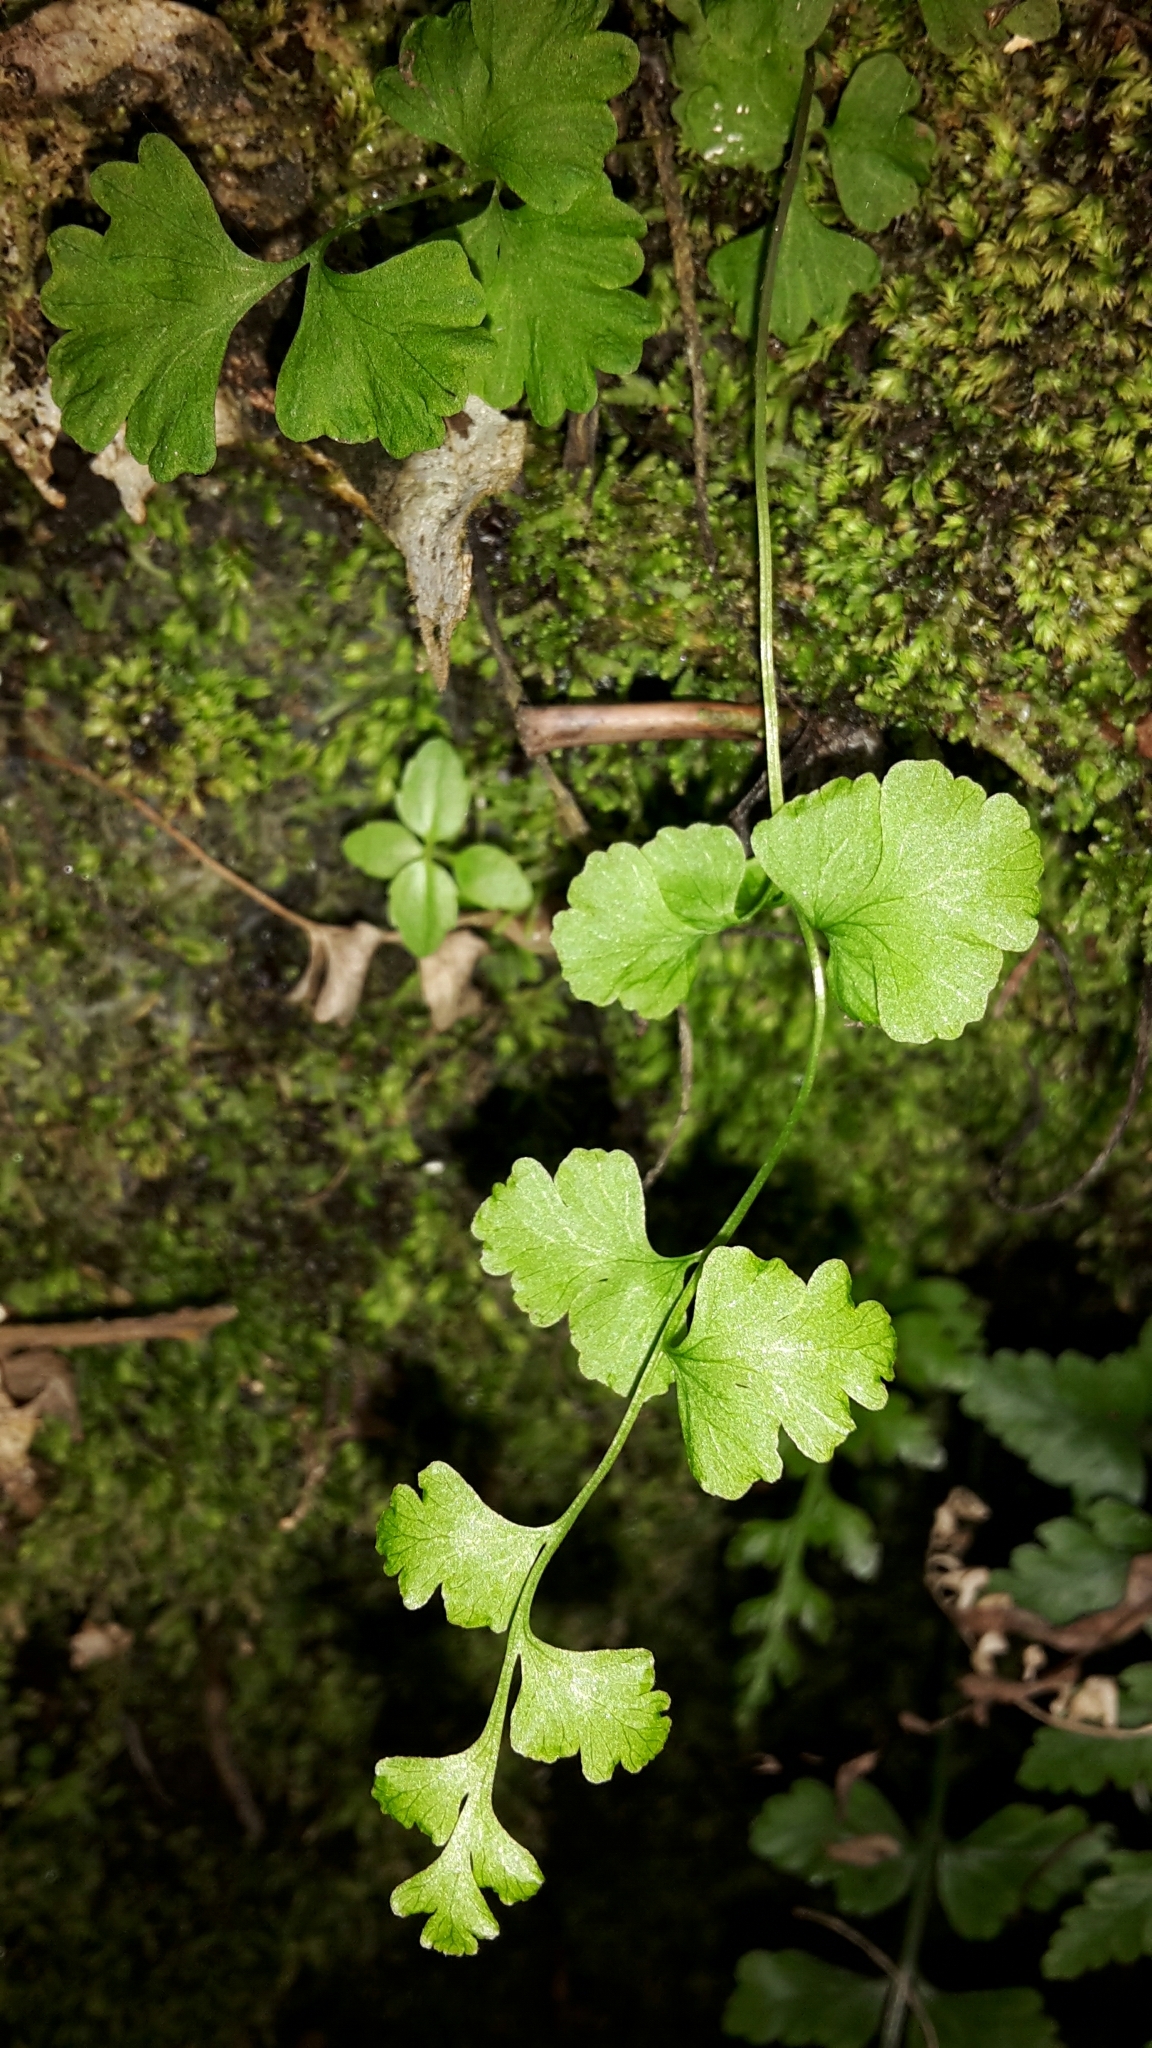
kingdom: Plantae
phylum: Tracheophyta
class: Polypodiopsida
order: Polypodiales
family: Cystopteridaceae
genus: Cystopteris
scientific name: Cystopteris tasmanica
